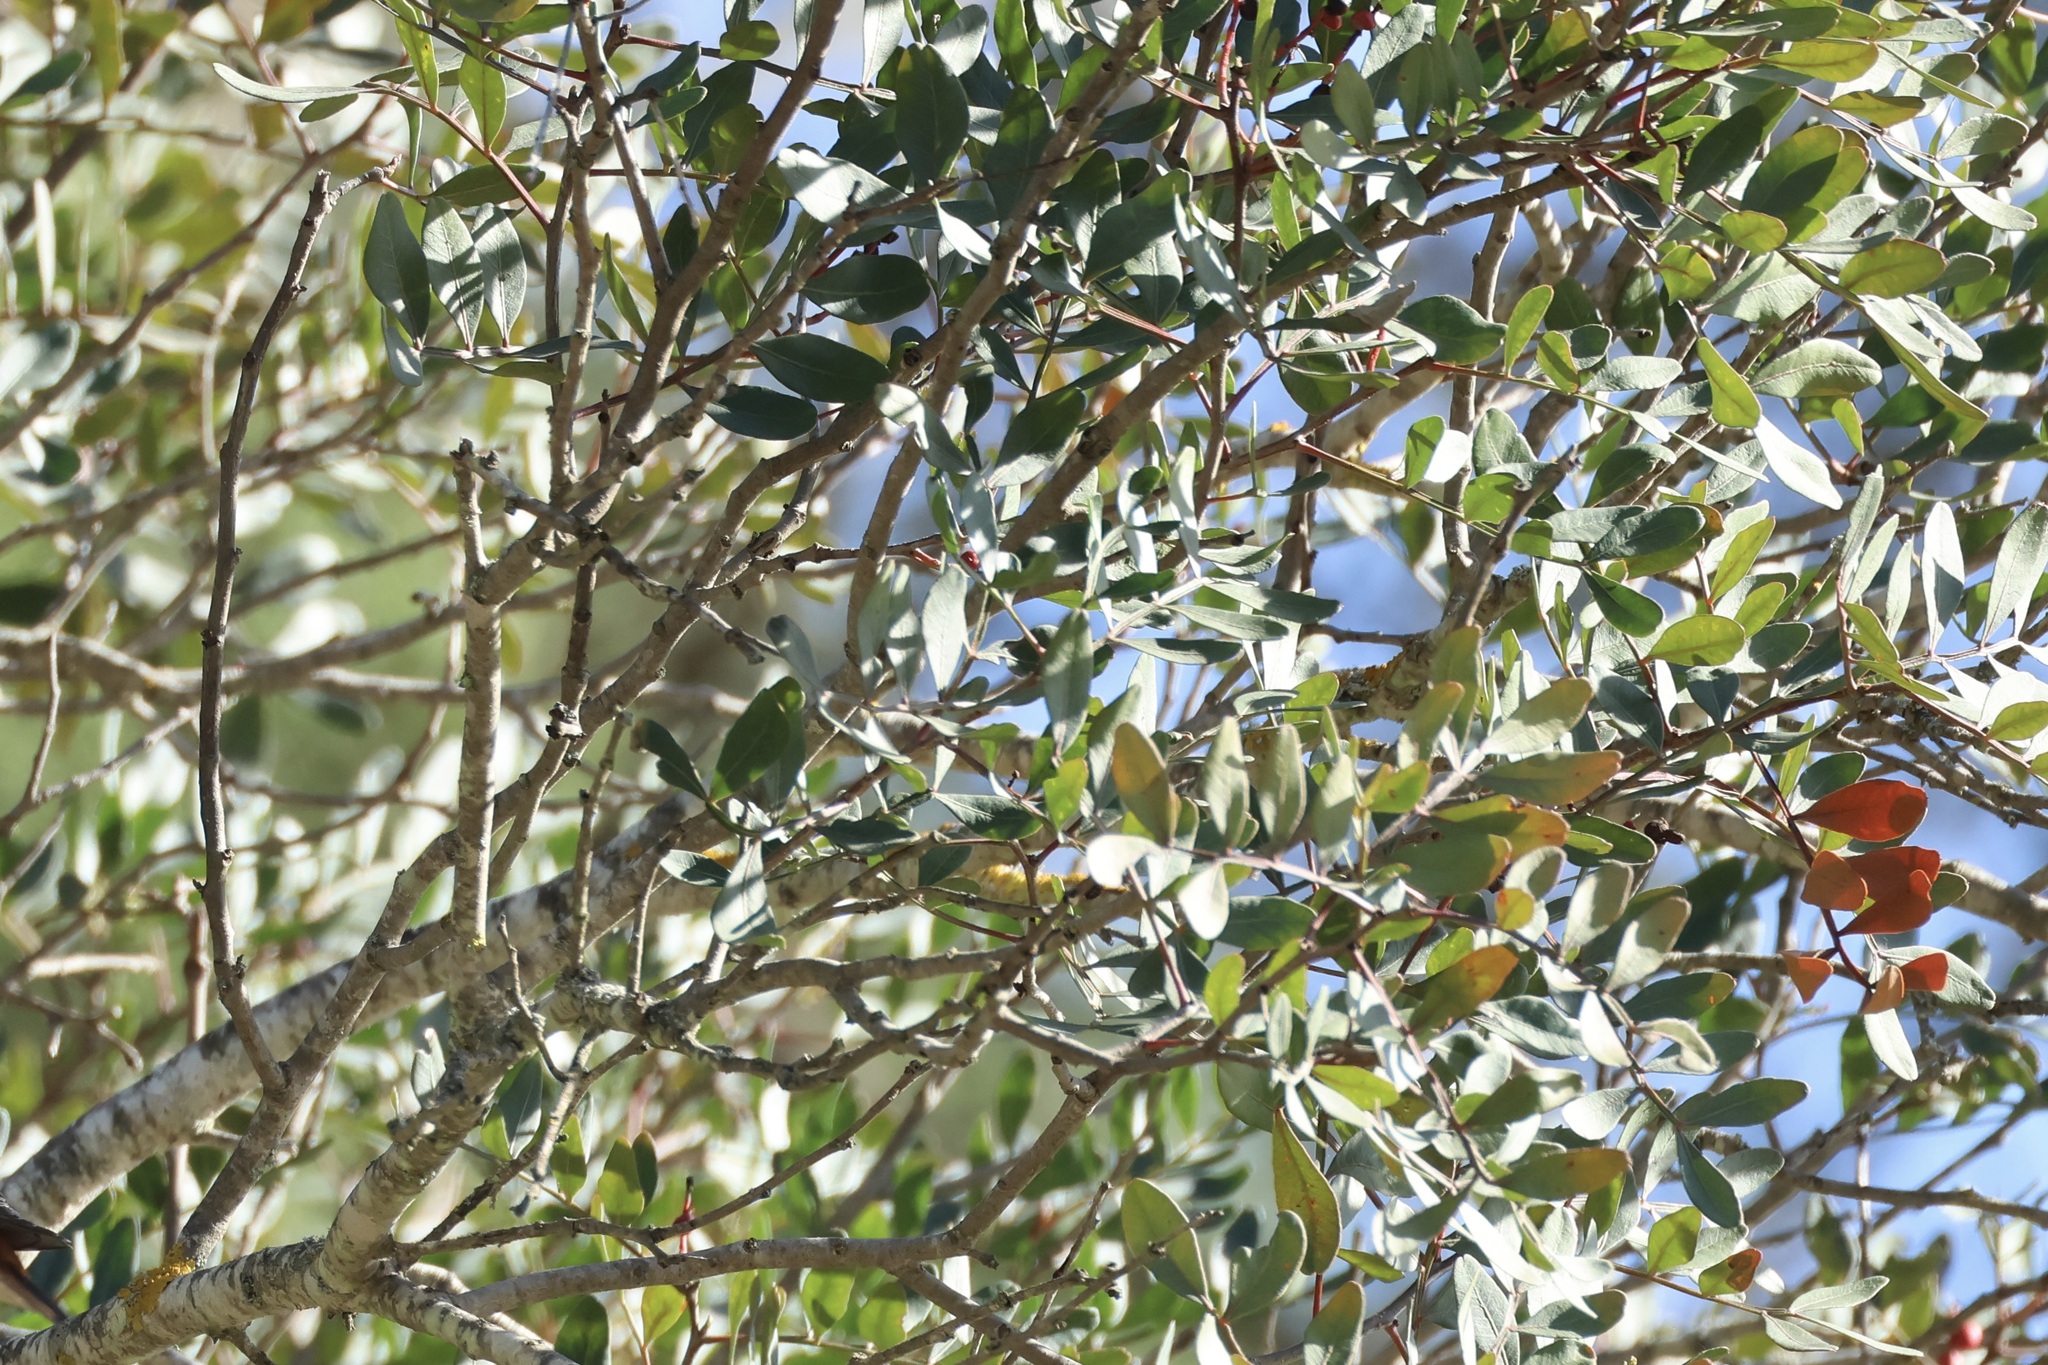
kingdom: Plantae
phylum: Tracheophyta
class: Magnoliopsida
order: Sapindales
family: Anacardiaceae
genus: Pistacia
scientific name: Pistacia lentiscus
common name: Lentisk
